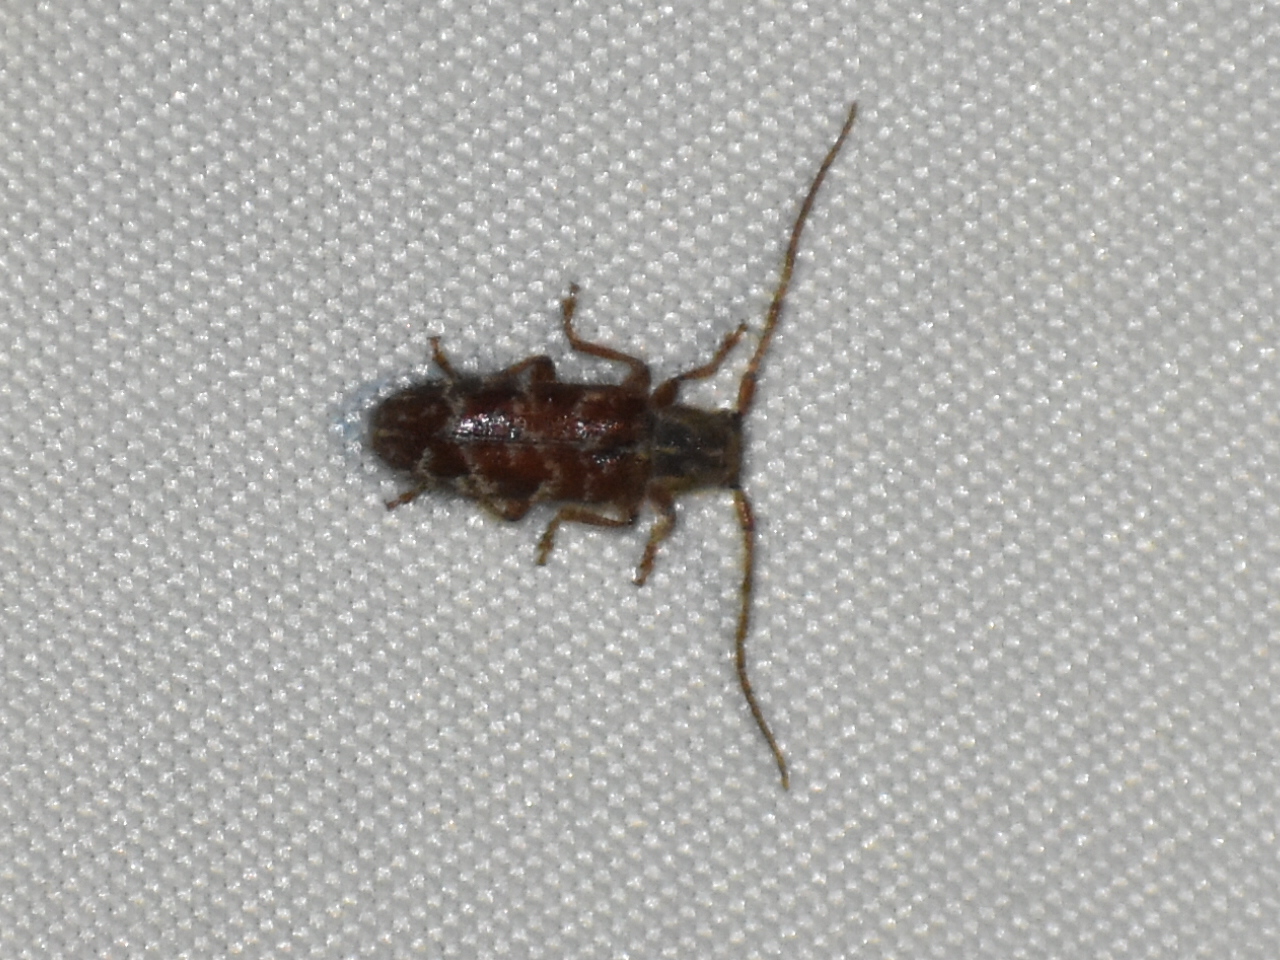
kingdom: Animalia
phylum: Arthropoda
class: Insecta
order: Coleoptera
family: Cerambycidae
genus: Eupogonius
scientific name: Eupogonius tomentosus
